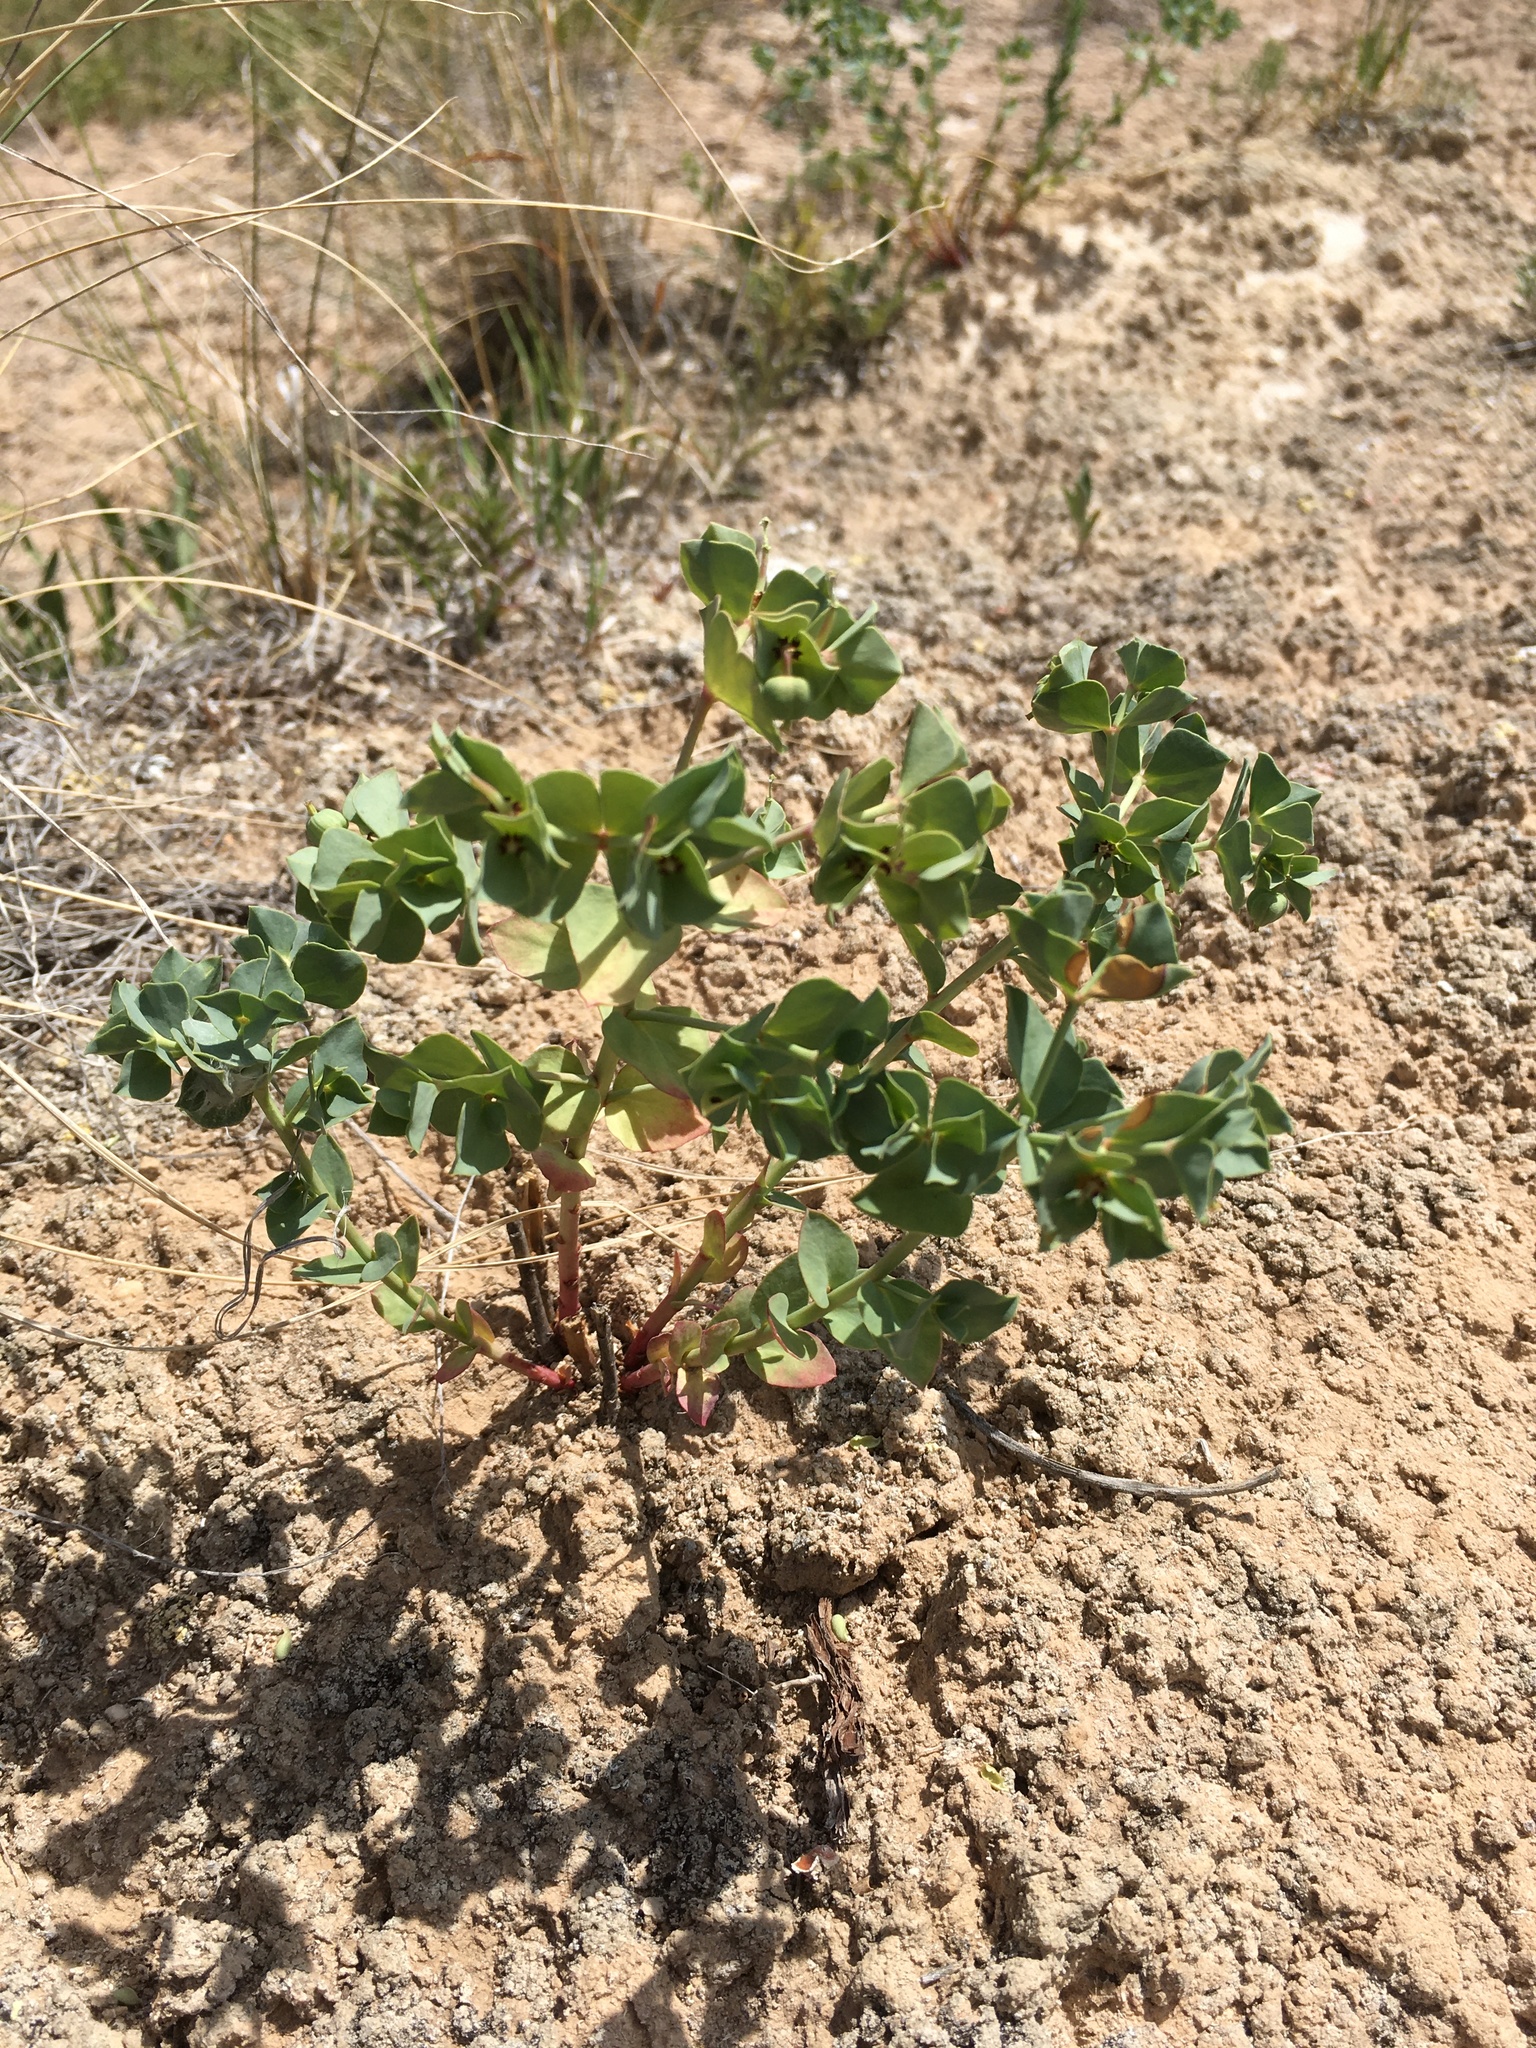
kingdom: Plantae
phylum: Tracheophyta
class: Magnoliopsida
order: Malpighiales
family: Euphorbiaceae
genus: Euphorbia
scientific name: Euphorbia brachycera
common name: Shorthorn spurge
